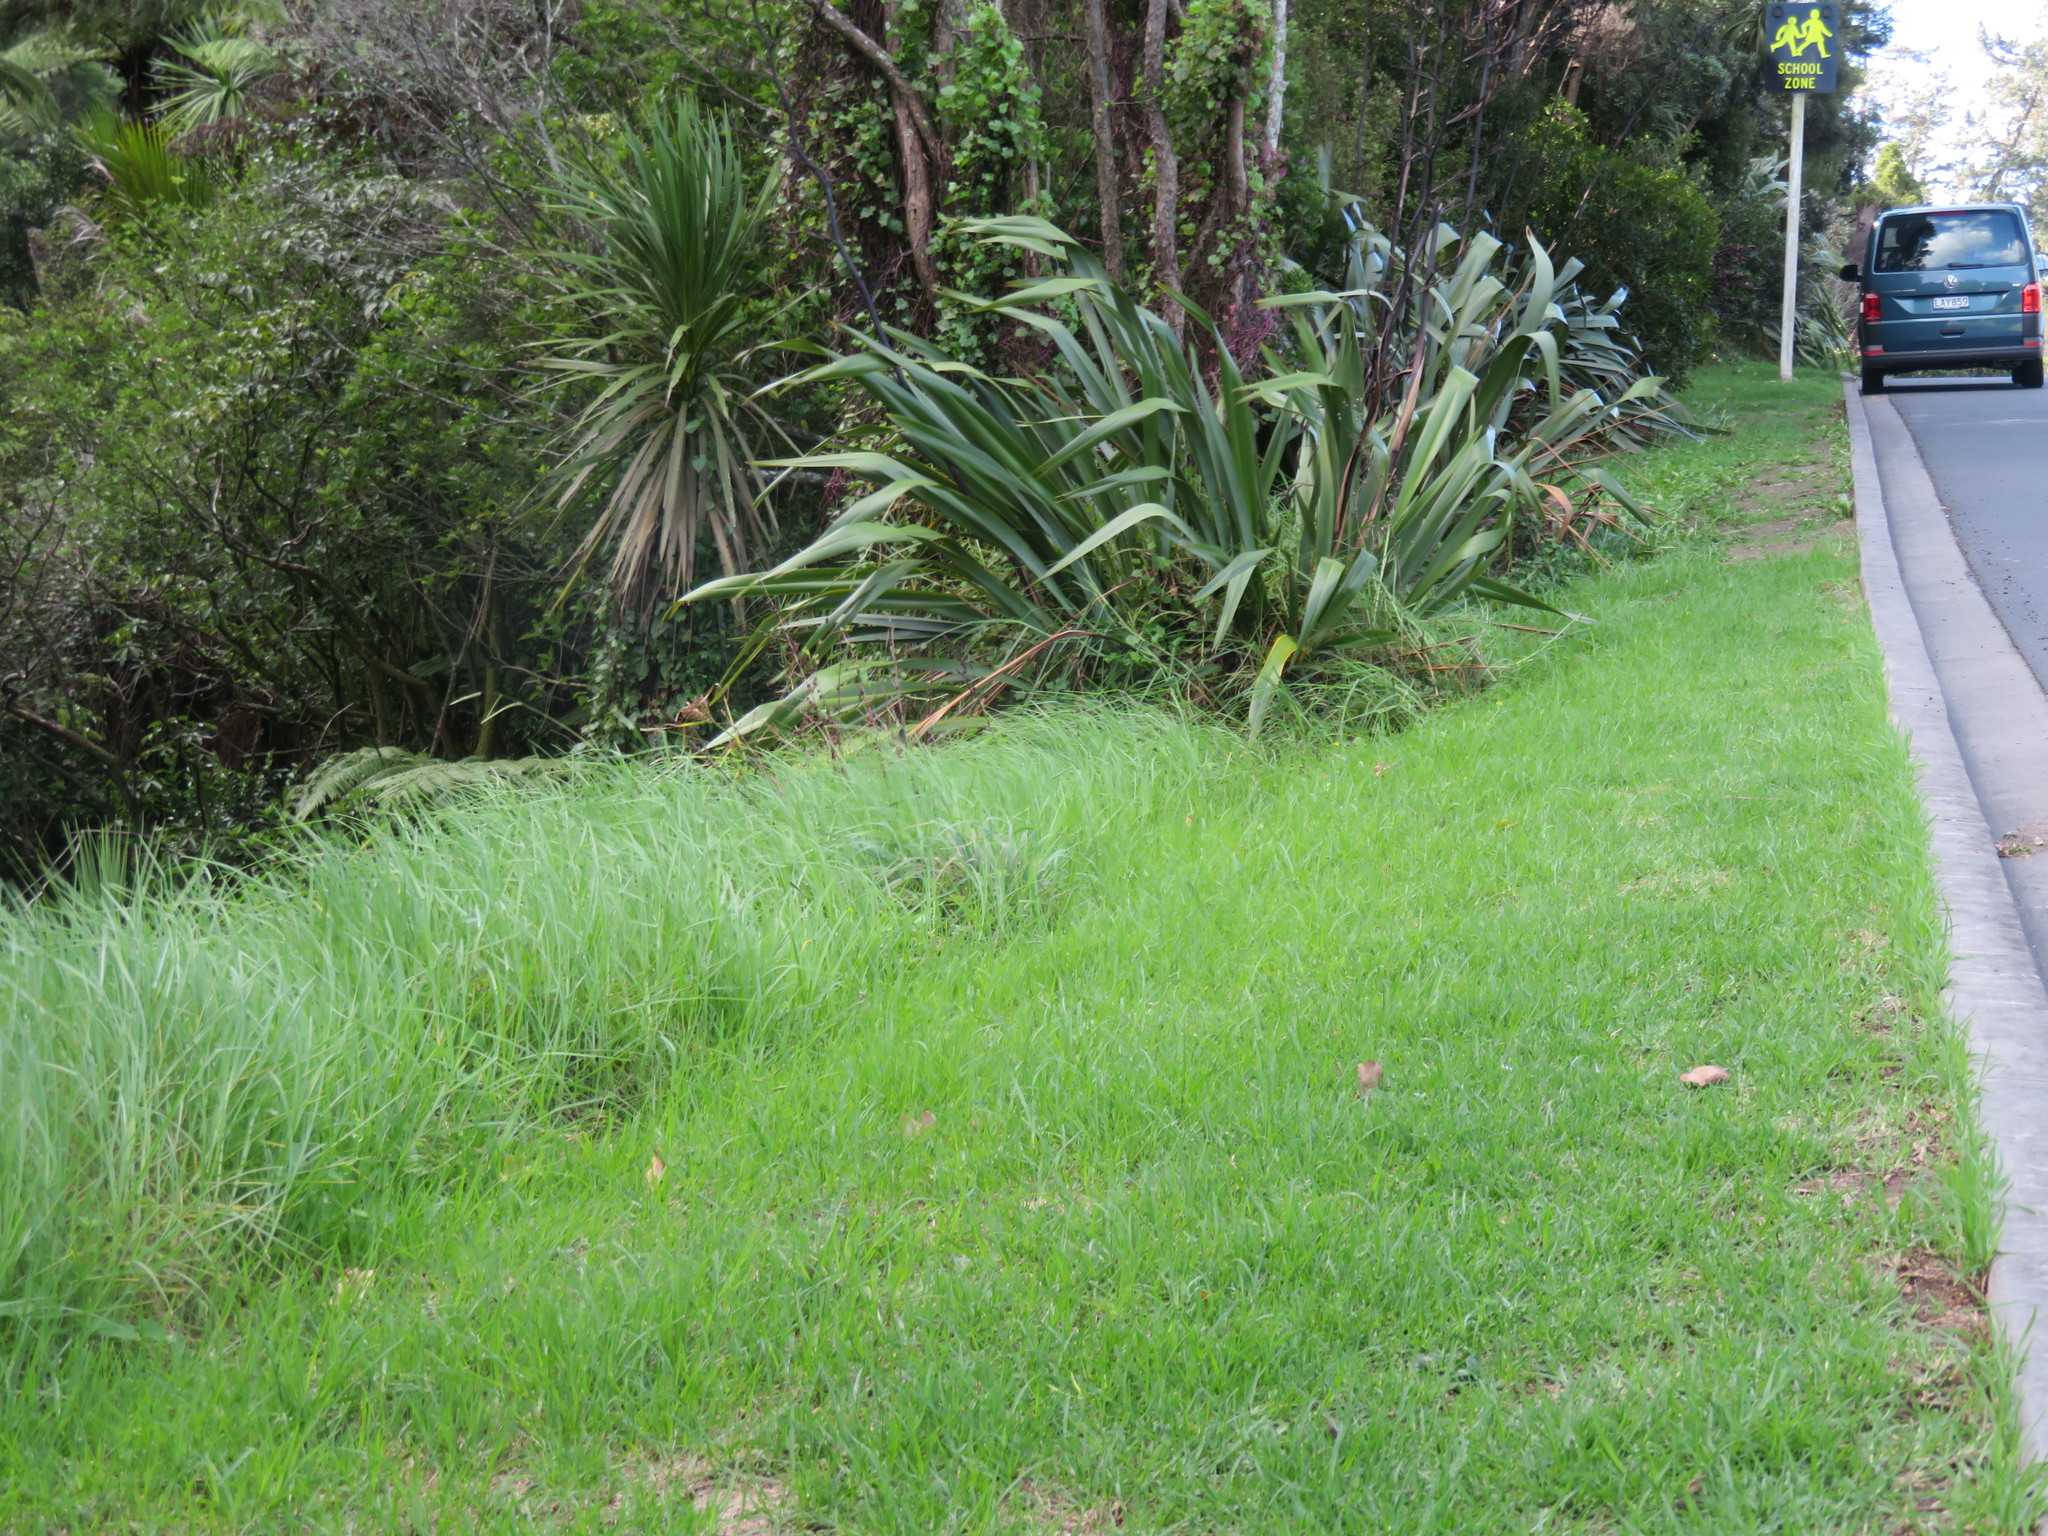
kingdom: Plantae
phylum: Tracheophyta
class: Liliopsida
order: Poales
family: Poaceae
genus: Cenchrus
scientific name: Cenchrus clandestinus
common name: Kikuyugrass
